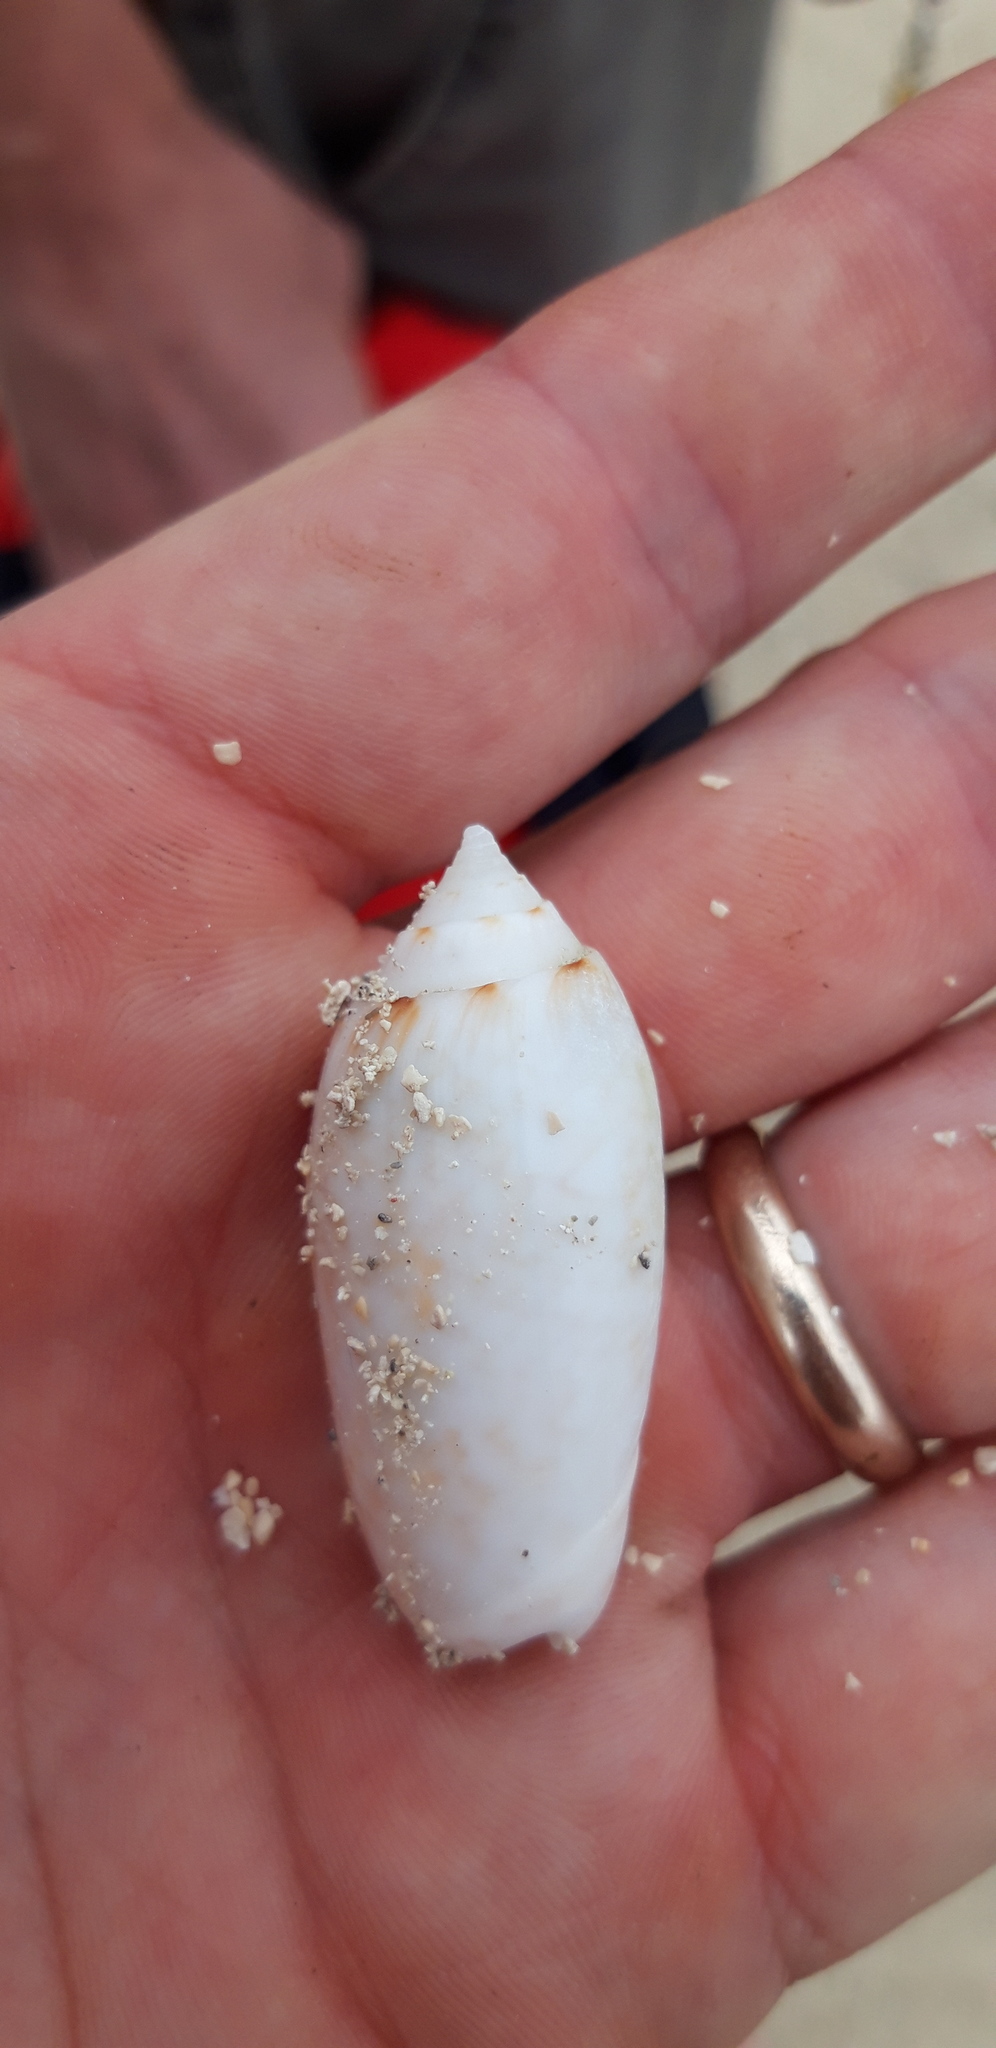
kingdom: Animalia
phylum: Mollusca
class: Gastropoda
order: Neogastropoda
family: Olividae
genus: Oliva
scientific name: Oliva reticularis
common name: Netted olive
